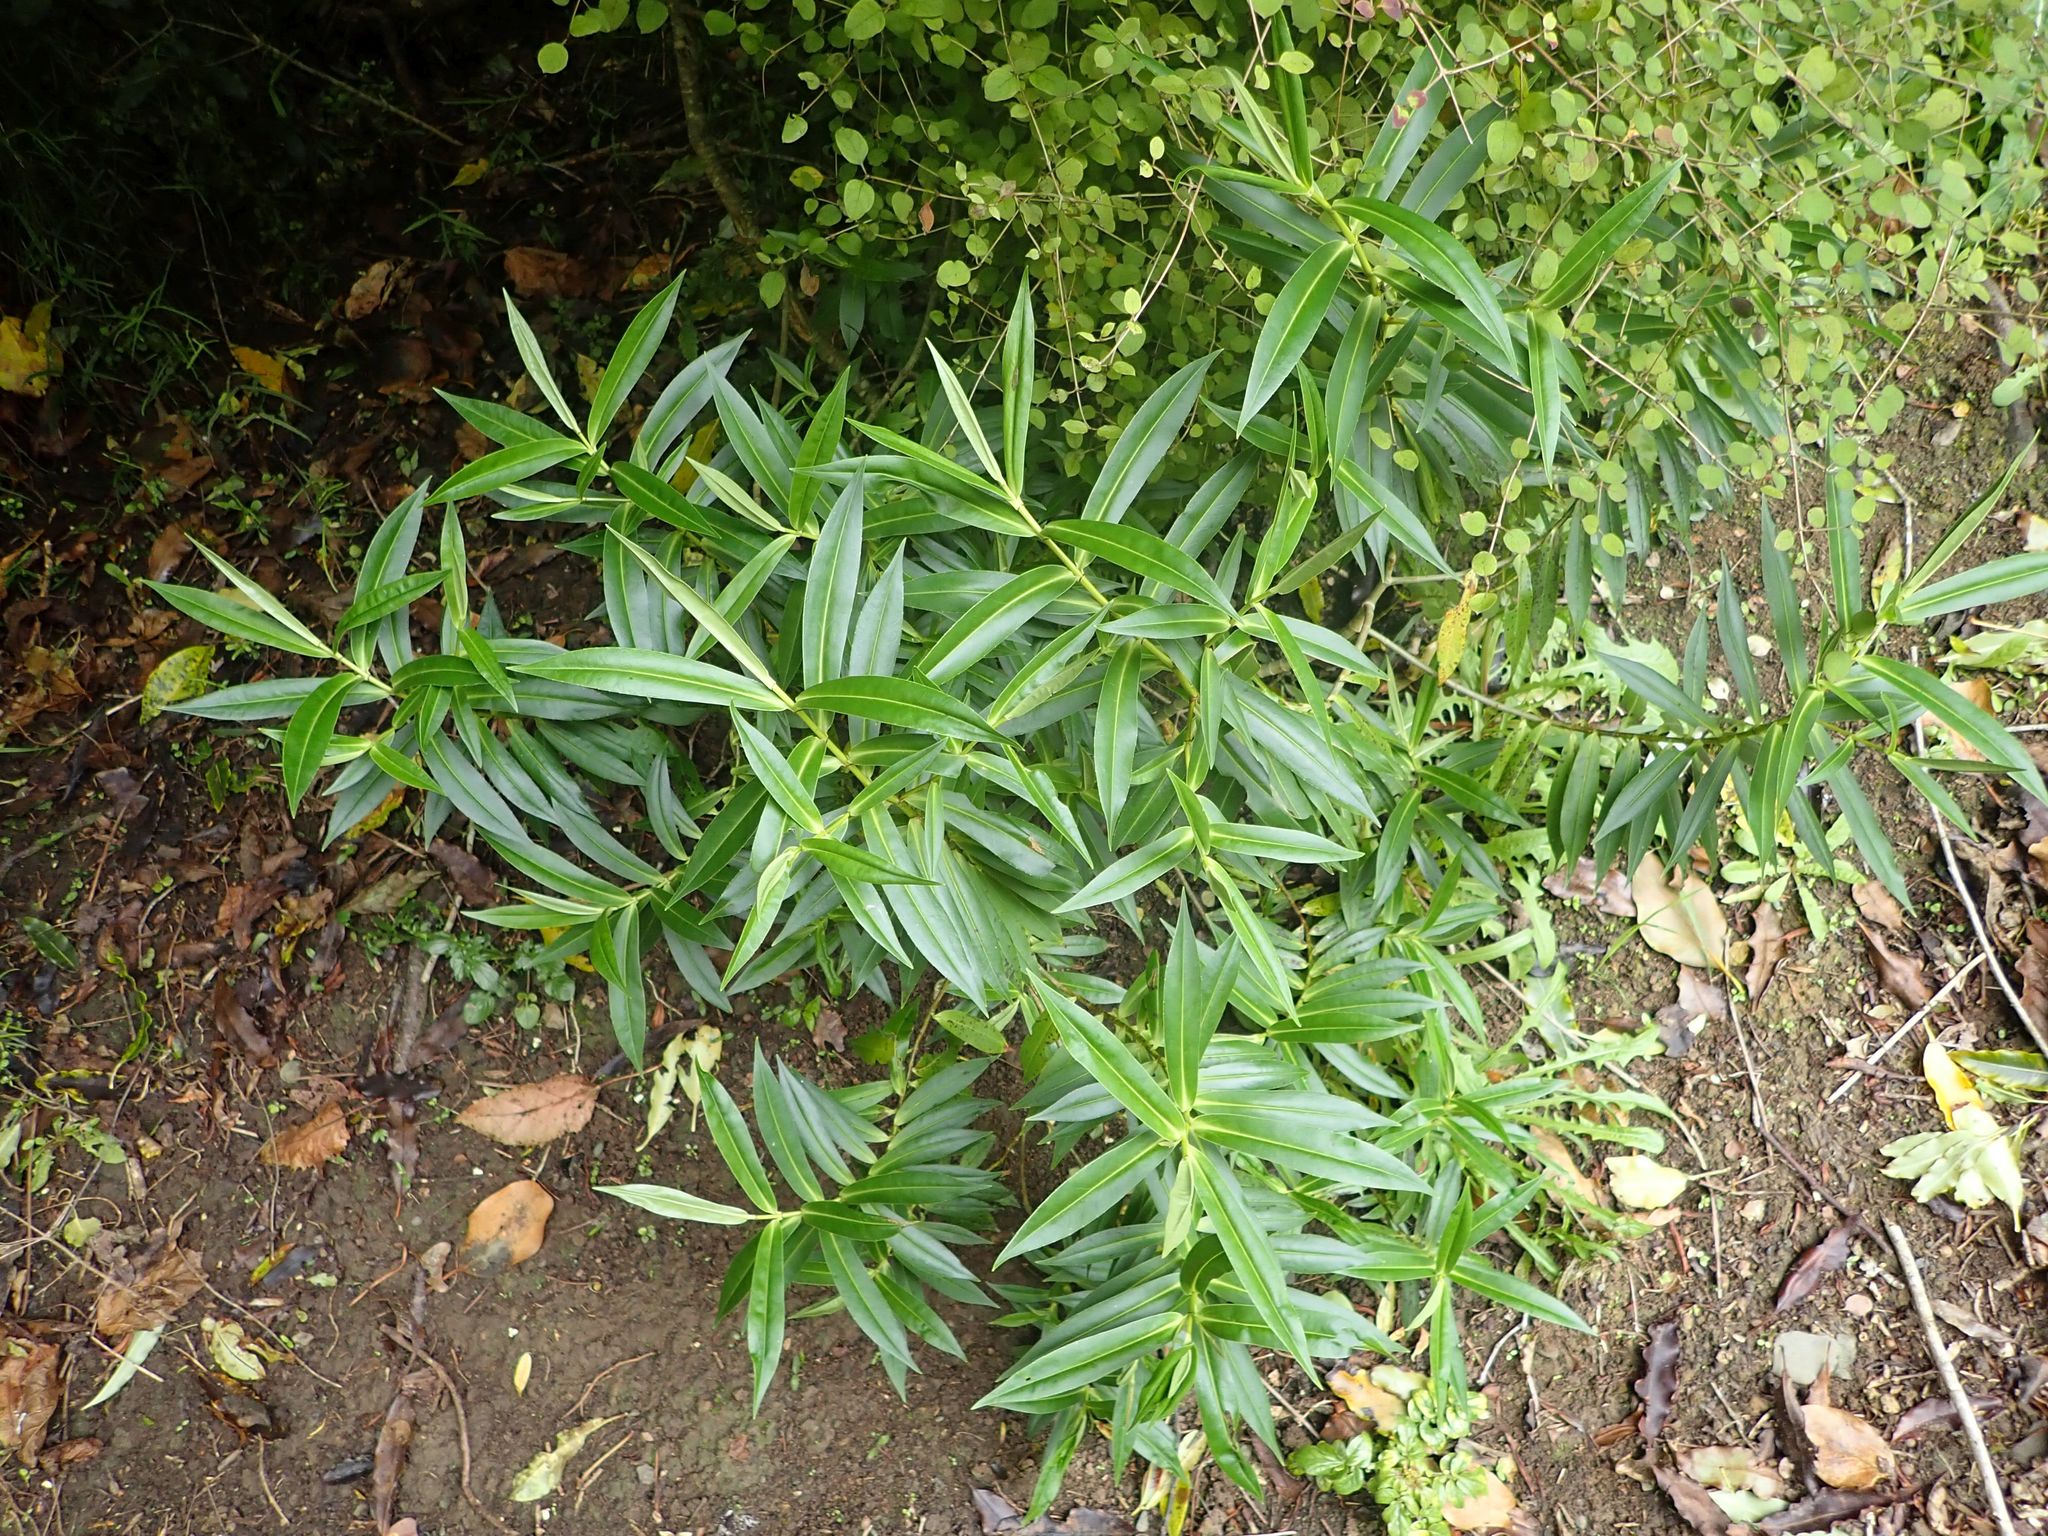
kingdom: Plantae
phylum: Tracheophyta
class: Magnoliopsida
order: Lamiales
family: Plantaginaceae
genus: Veronica
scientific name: Veronica salicifolia
